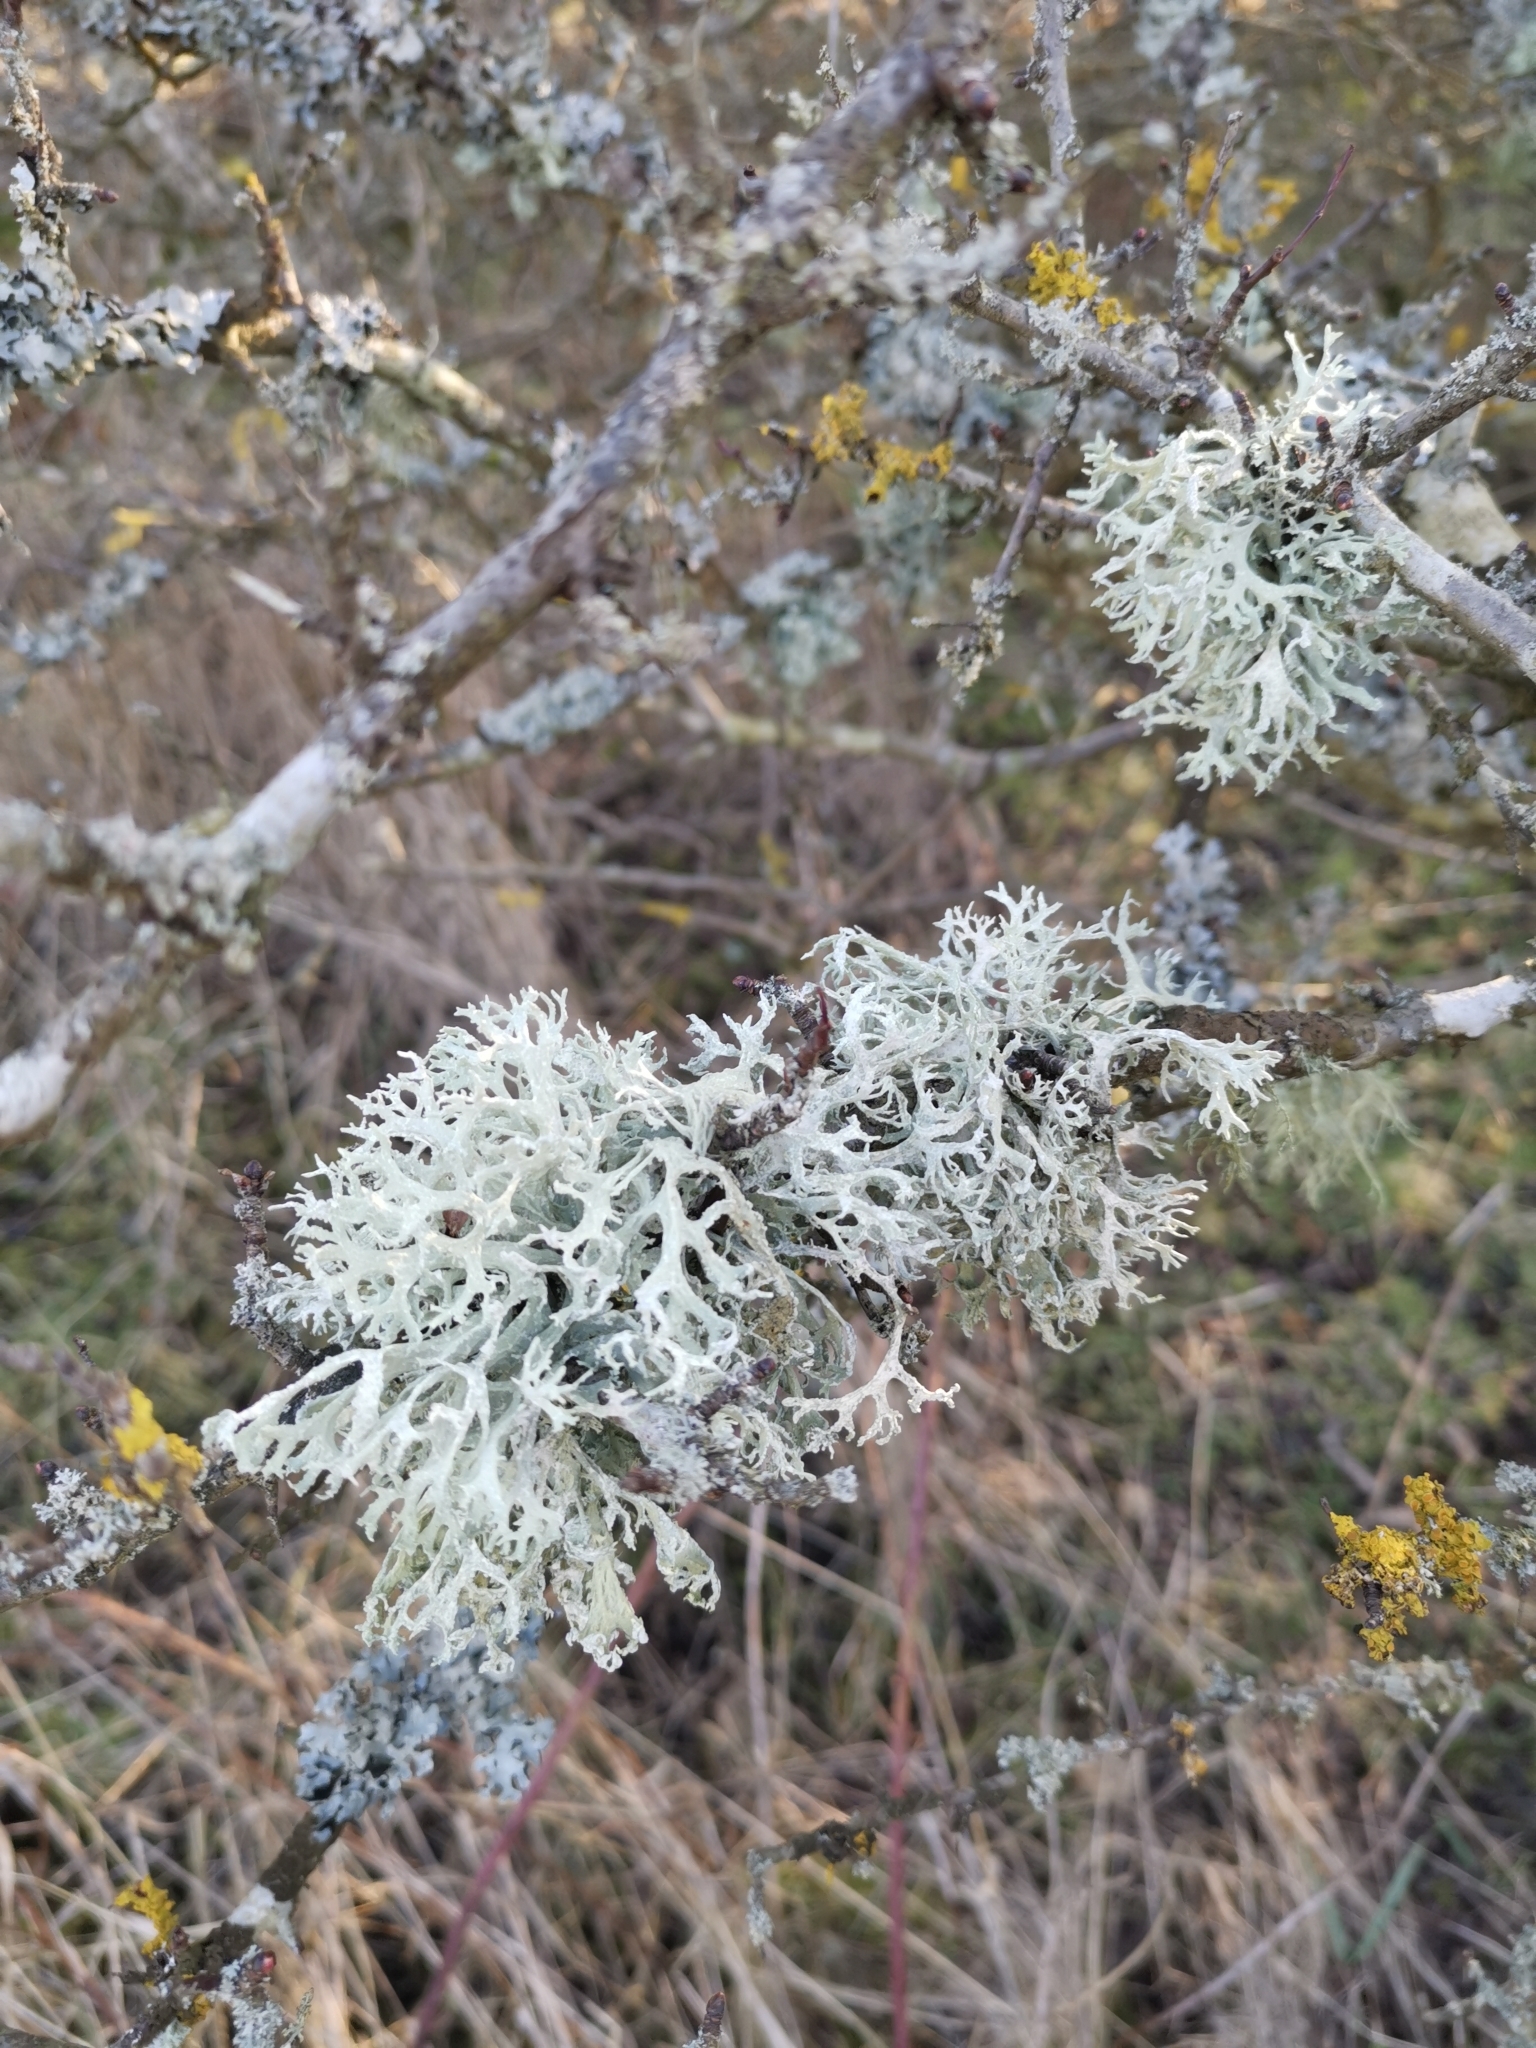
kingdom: Fungi
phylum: Ascomycota
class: Lecanoromycetes
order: Lecanorales
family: Parmeliaceae
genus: Evernia
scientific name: Evernia prunastri
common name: Oak moss
